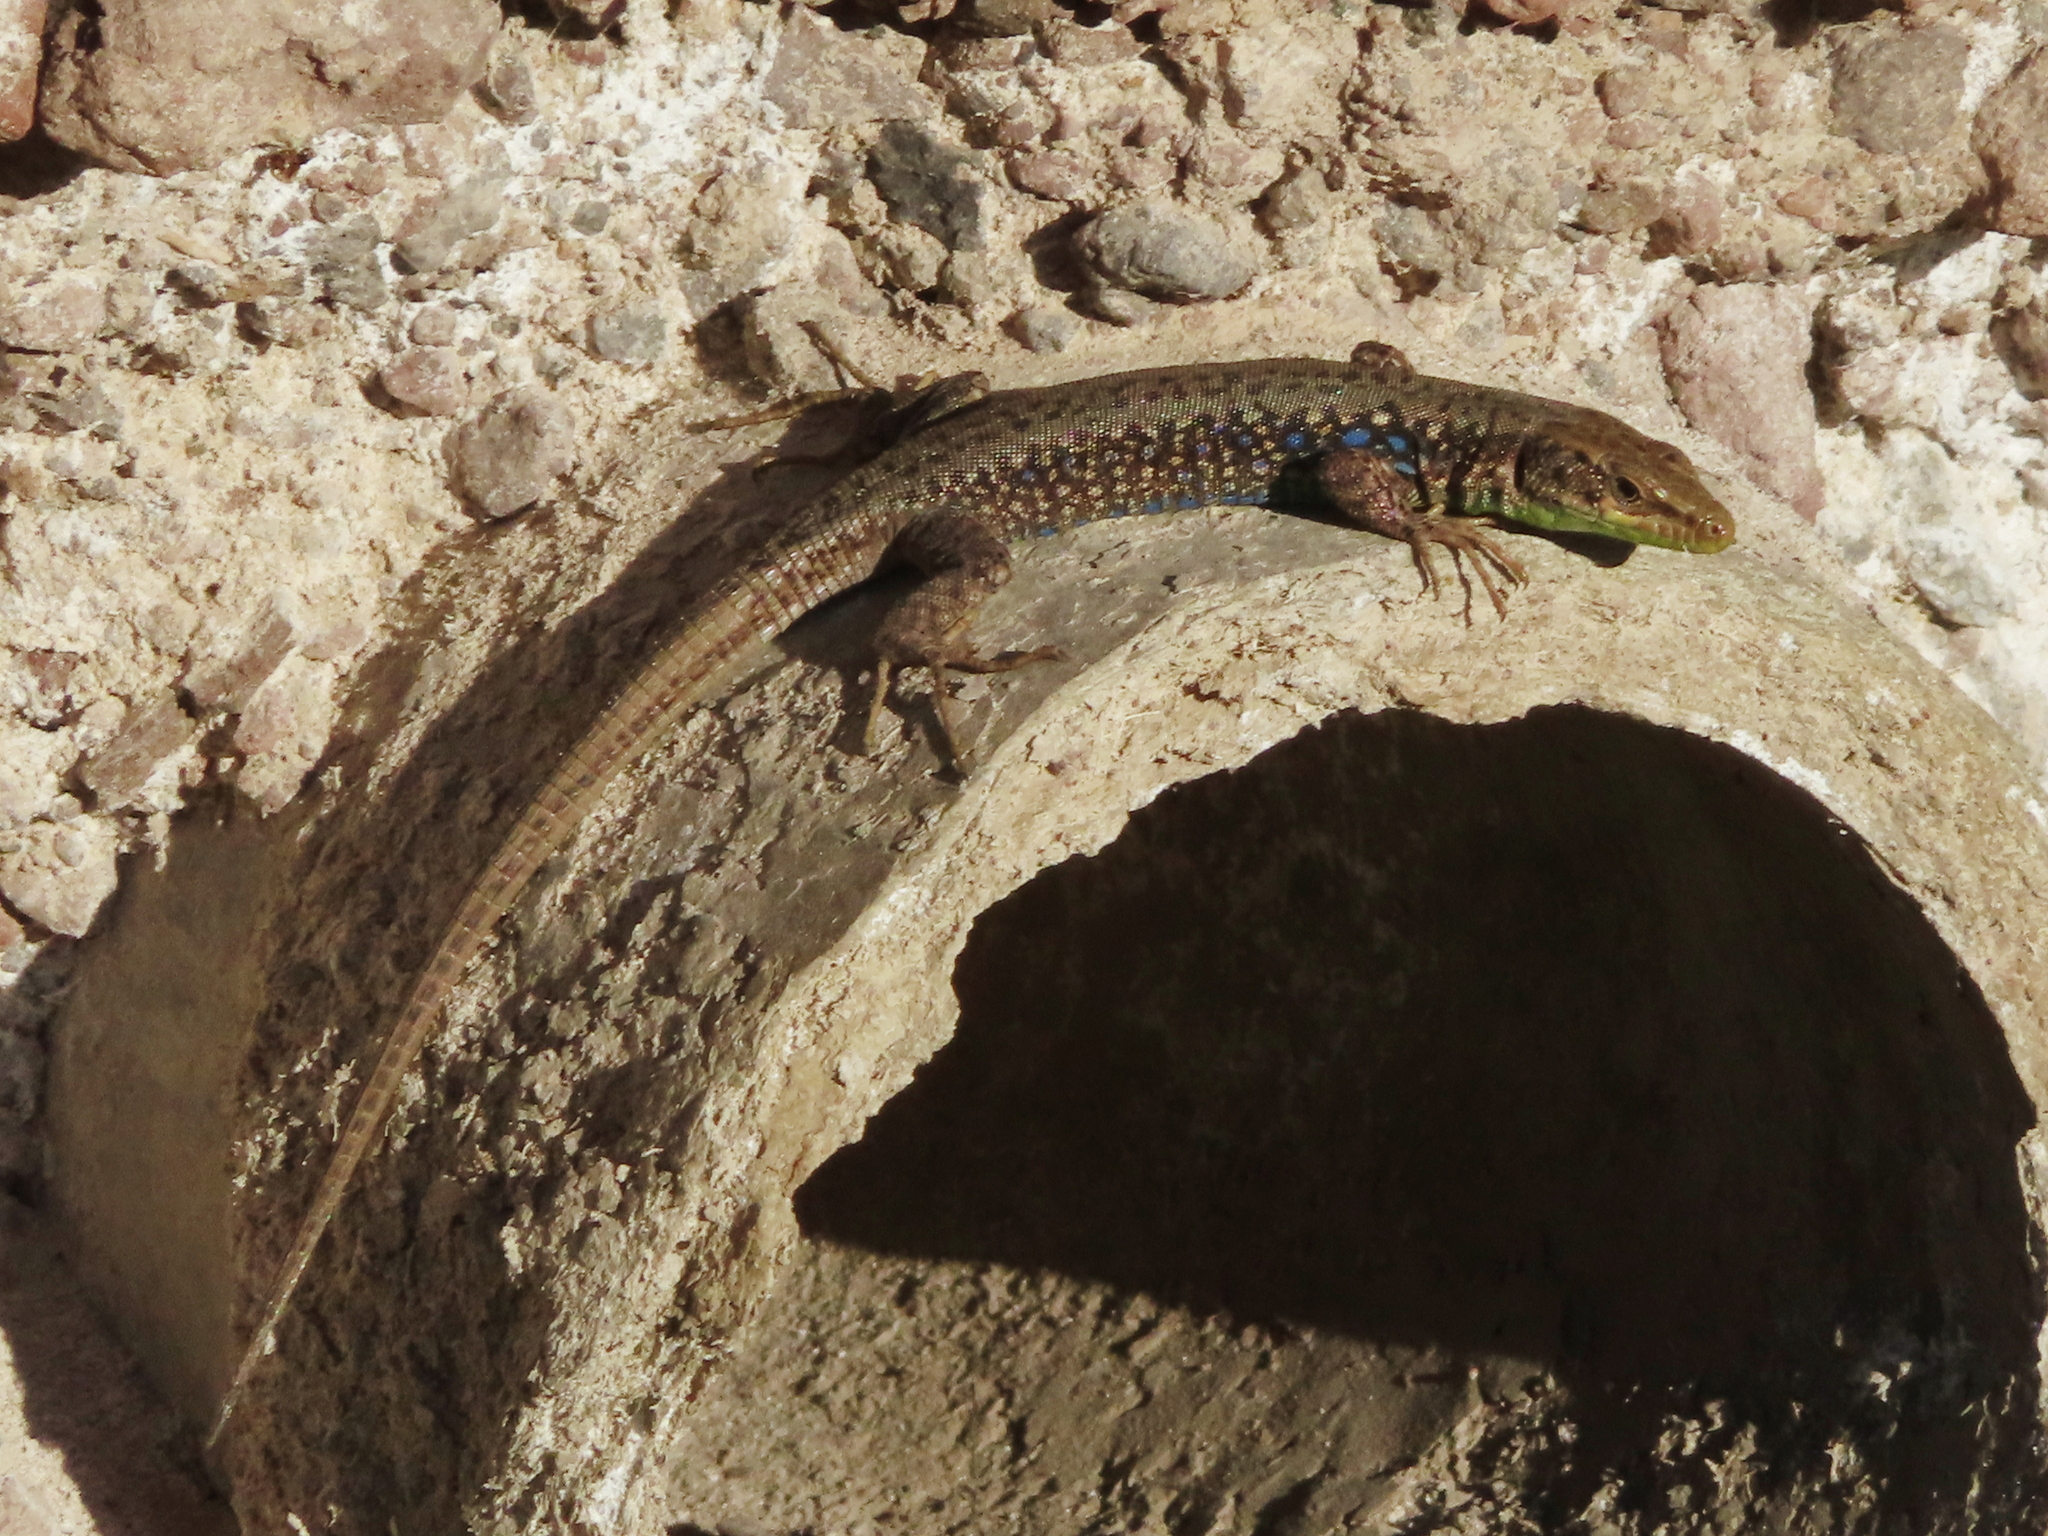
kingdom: Animalia
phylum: Chordata
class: Squamata
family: Lacertidae
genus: Darevskia
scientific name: Darevskia raddei
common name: Radde's lizard
